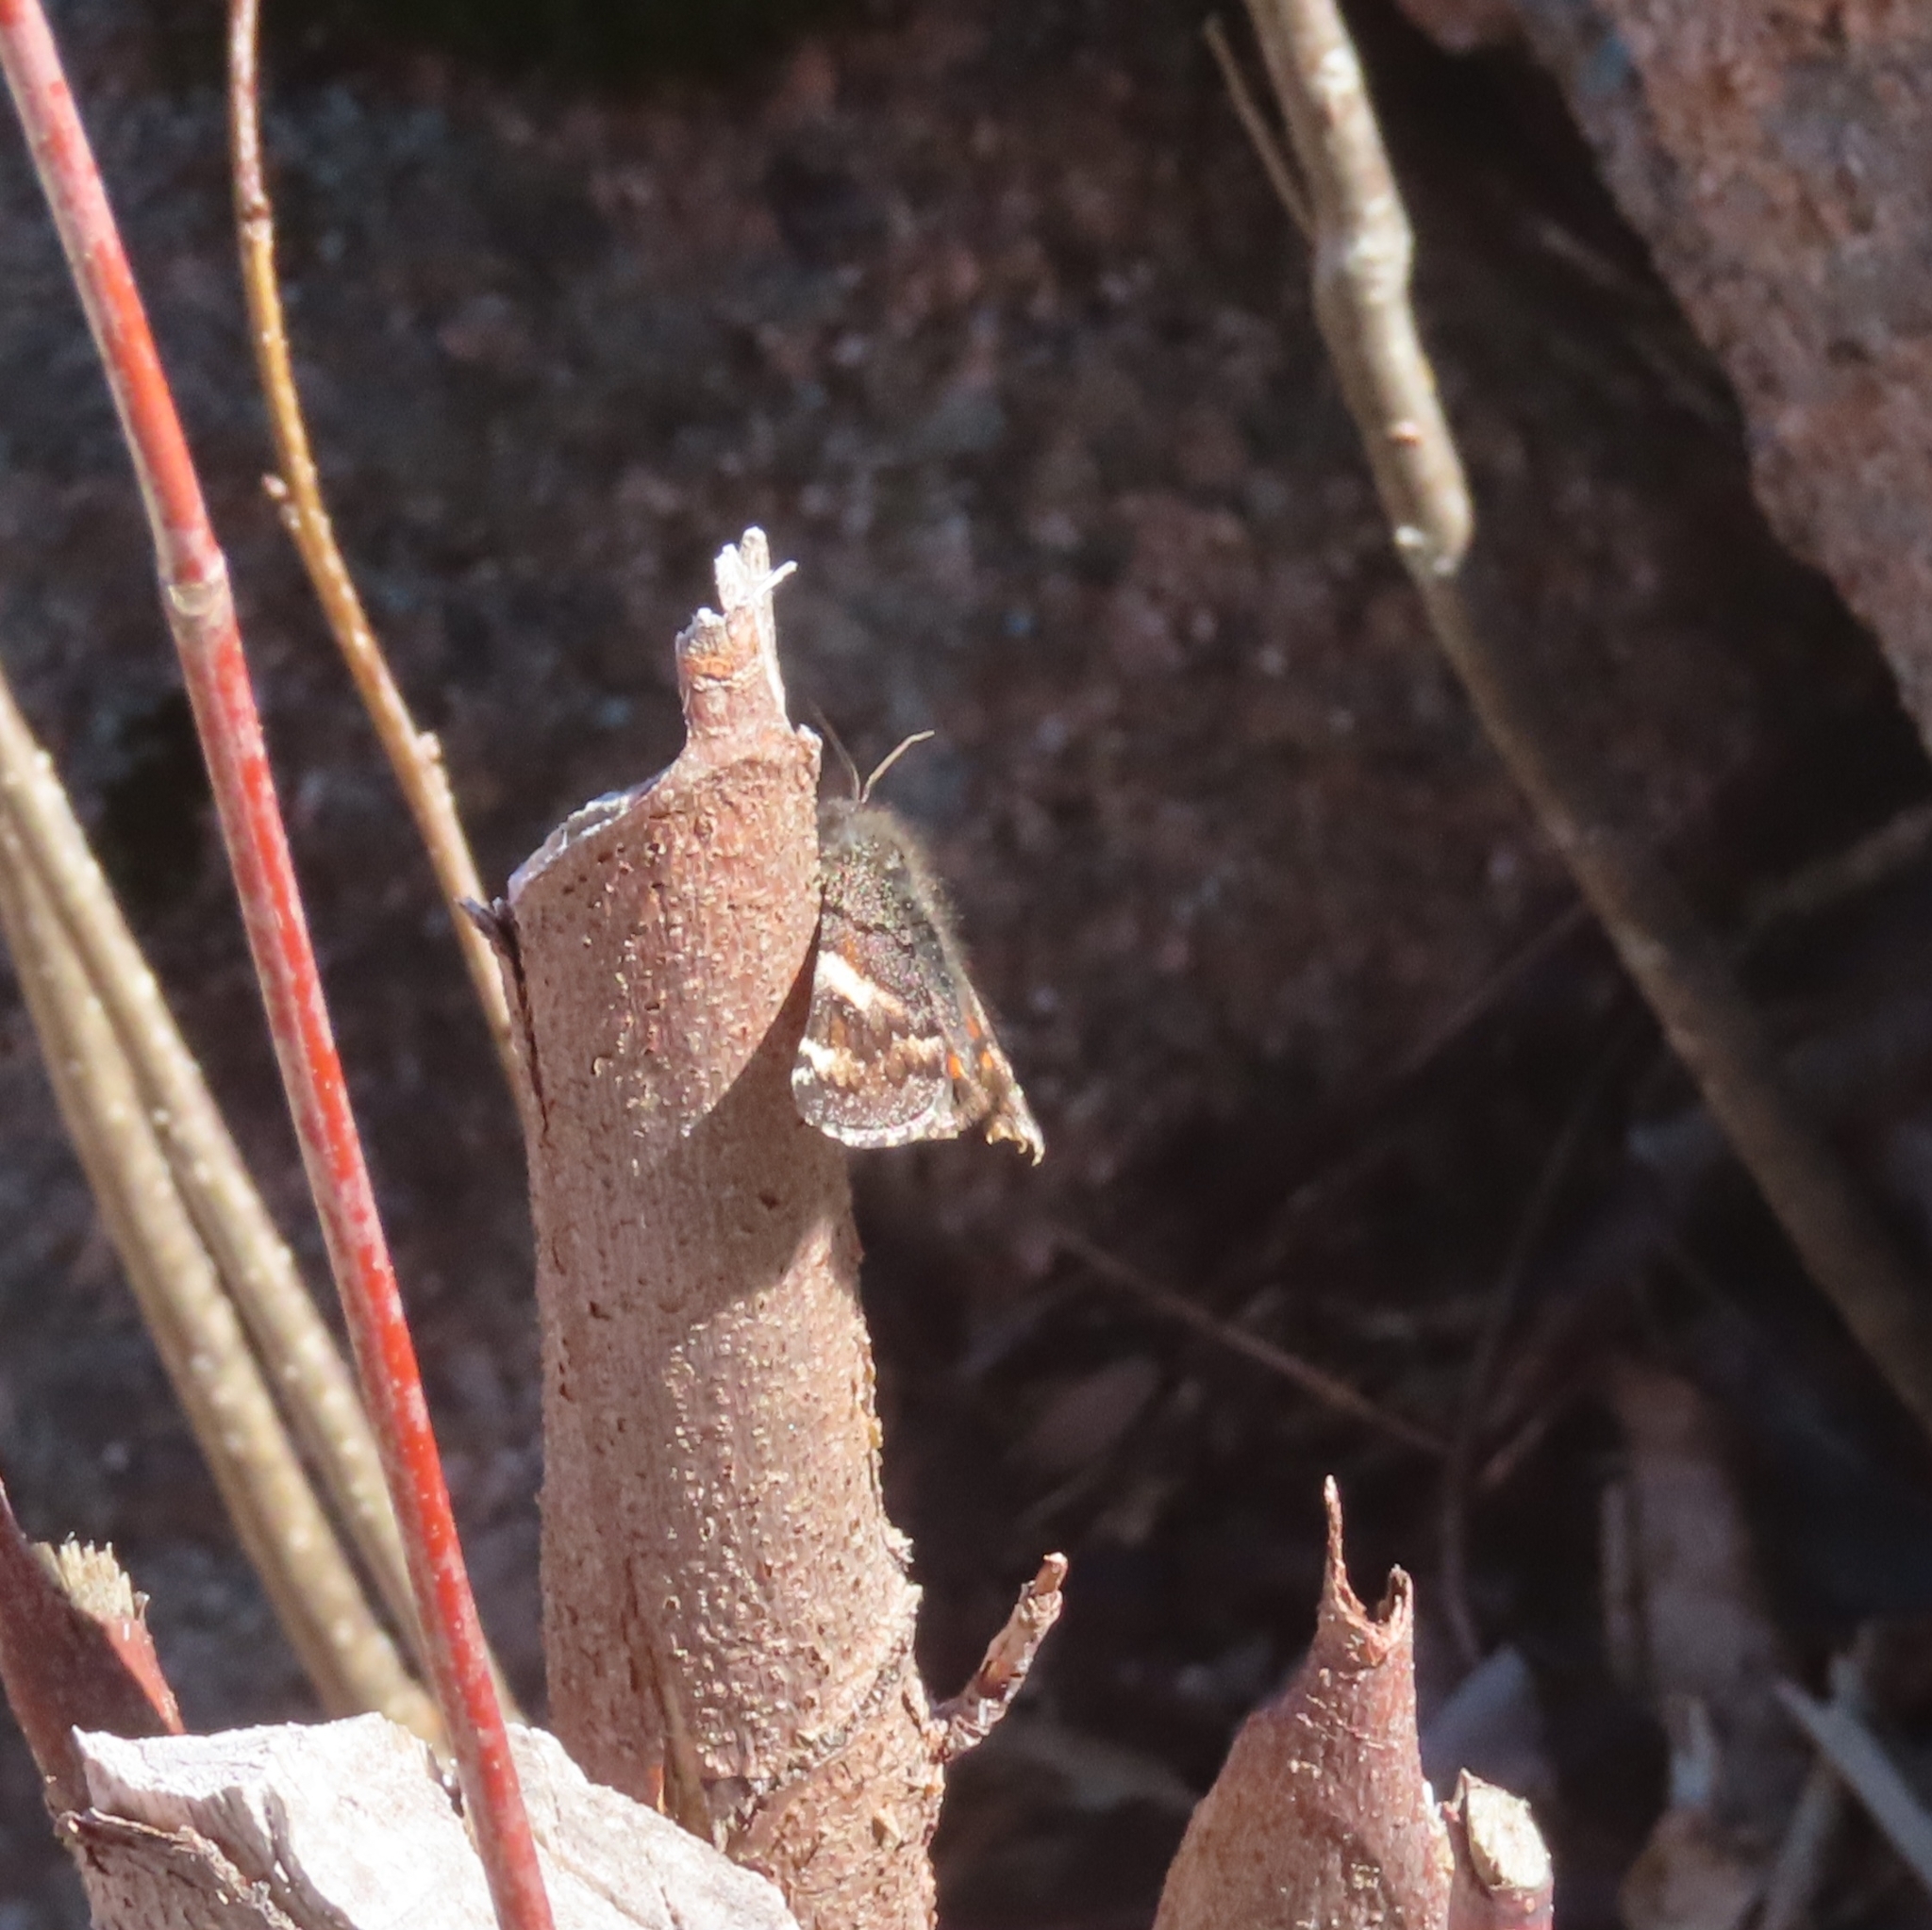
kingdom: Animalia
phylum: Arthropoda
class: Insecta
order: Lepidoptera
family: Geometridae
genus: Archiearis
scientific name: Archiearis infans
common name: First born geometer
